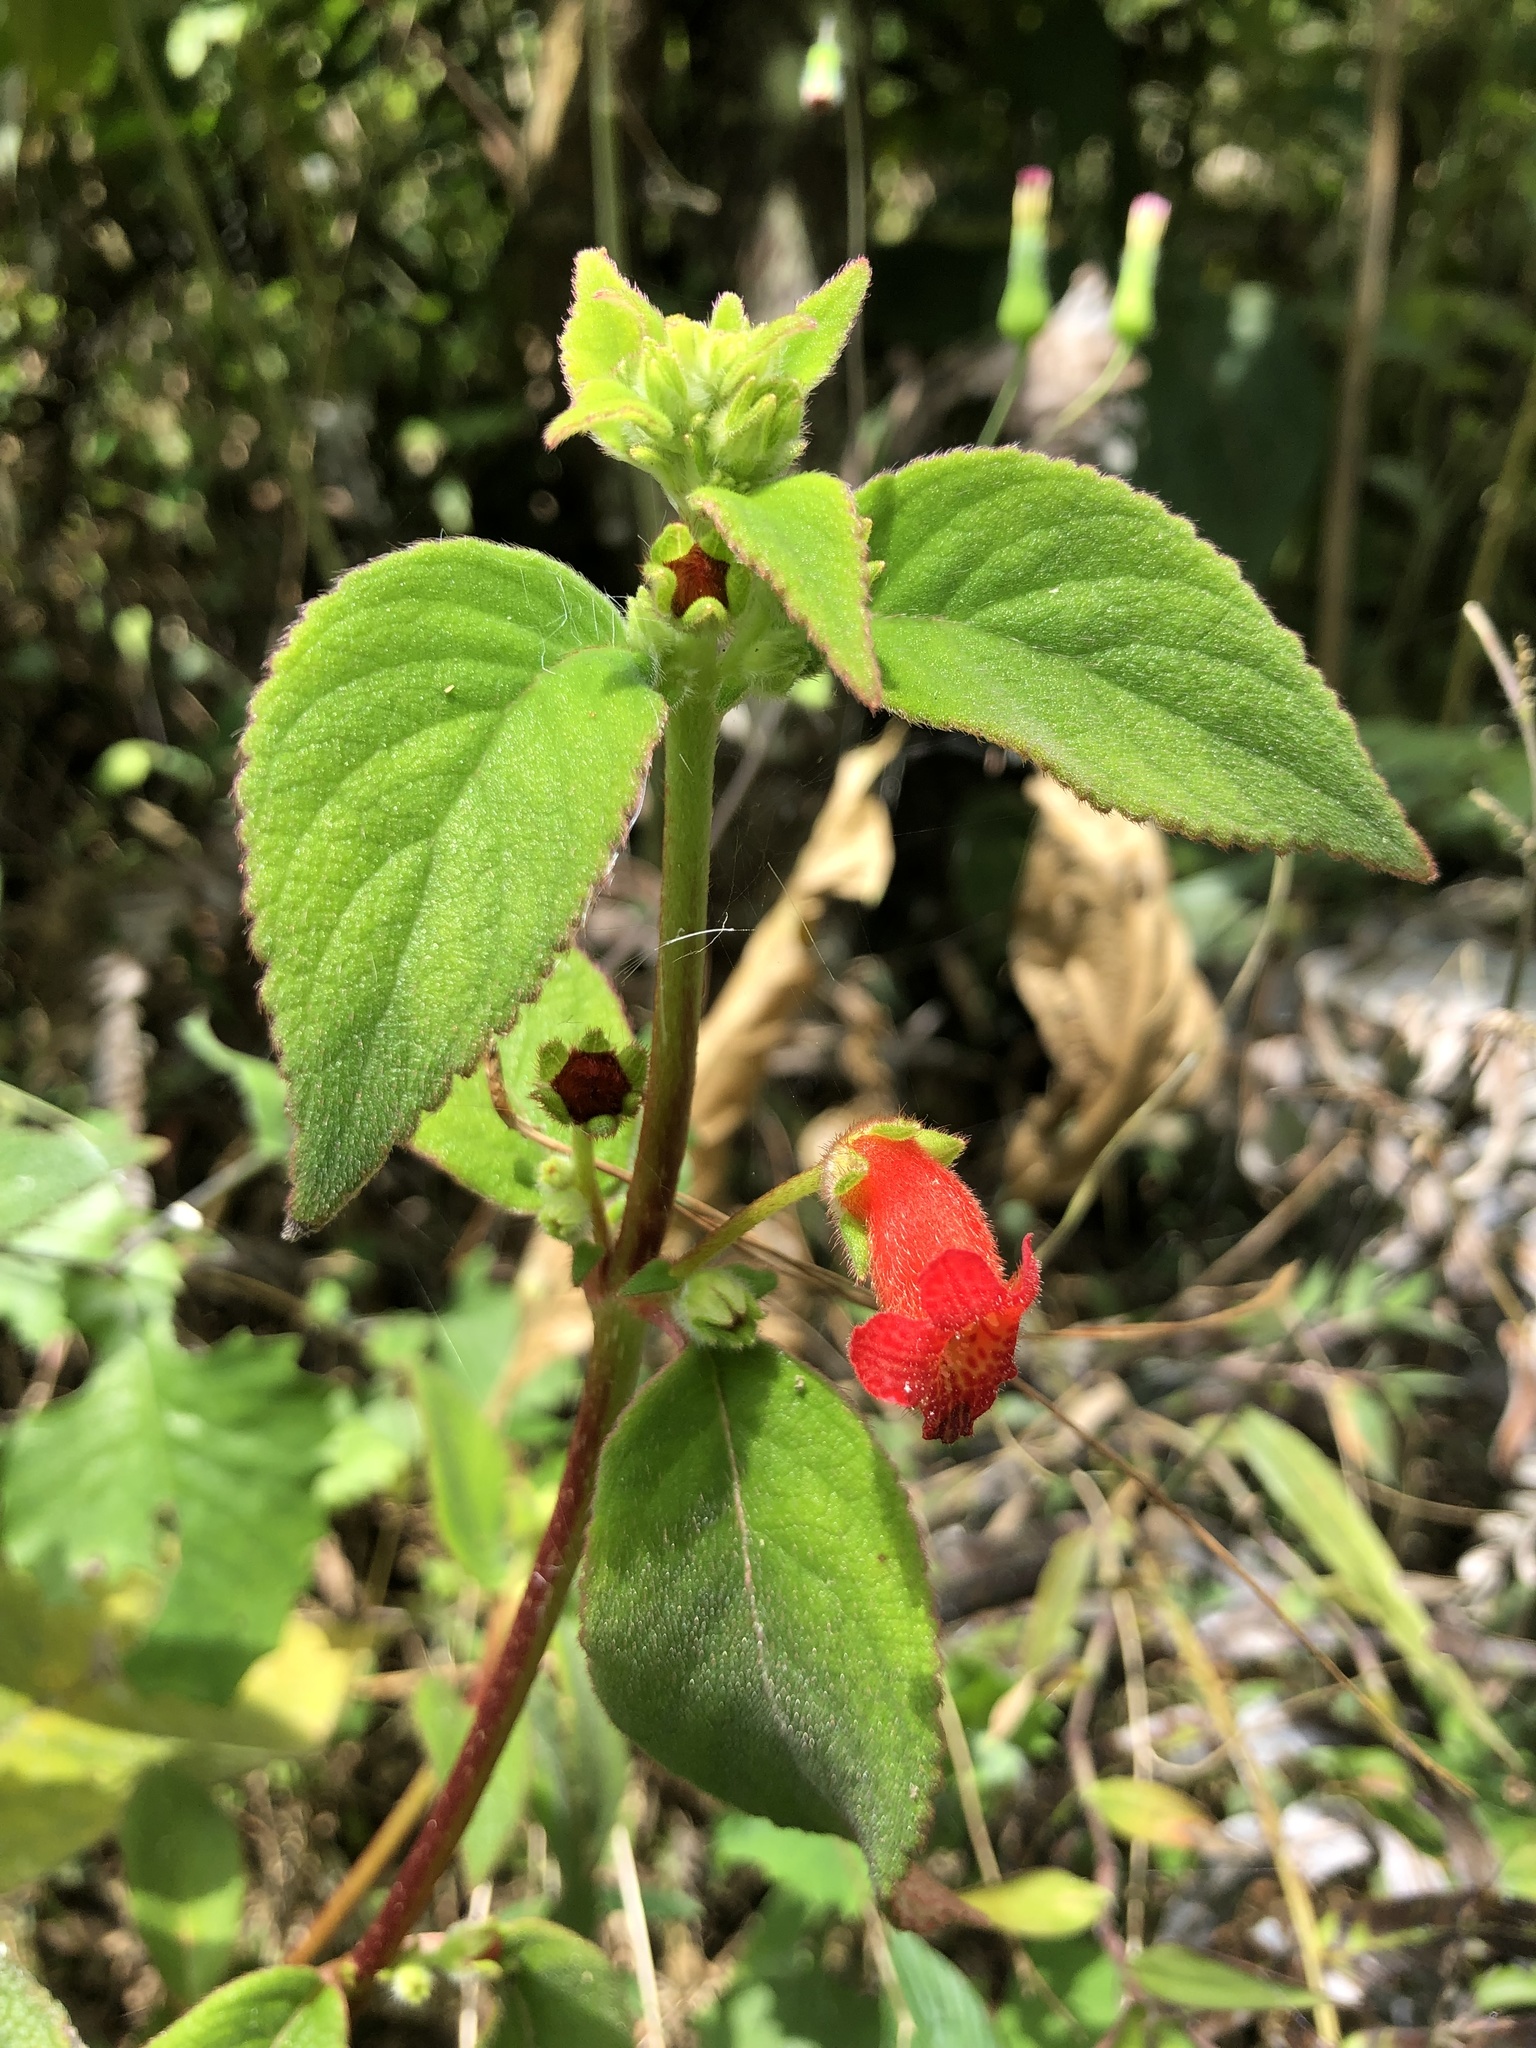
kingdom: Plantae
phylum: Tracheophyta
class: Magnoliopsida
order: Lamiales
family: Gesneriaceae
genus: Kohleria
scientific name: Kohleria spicata
